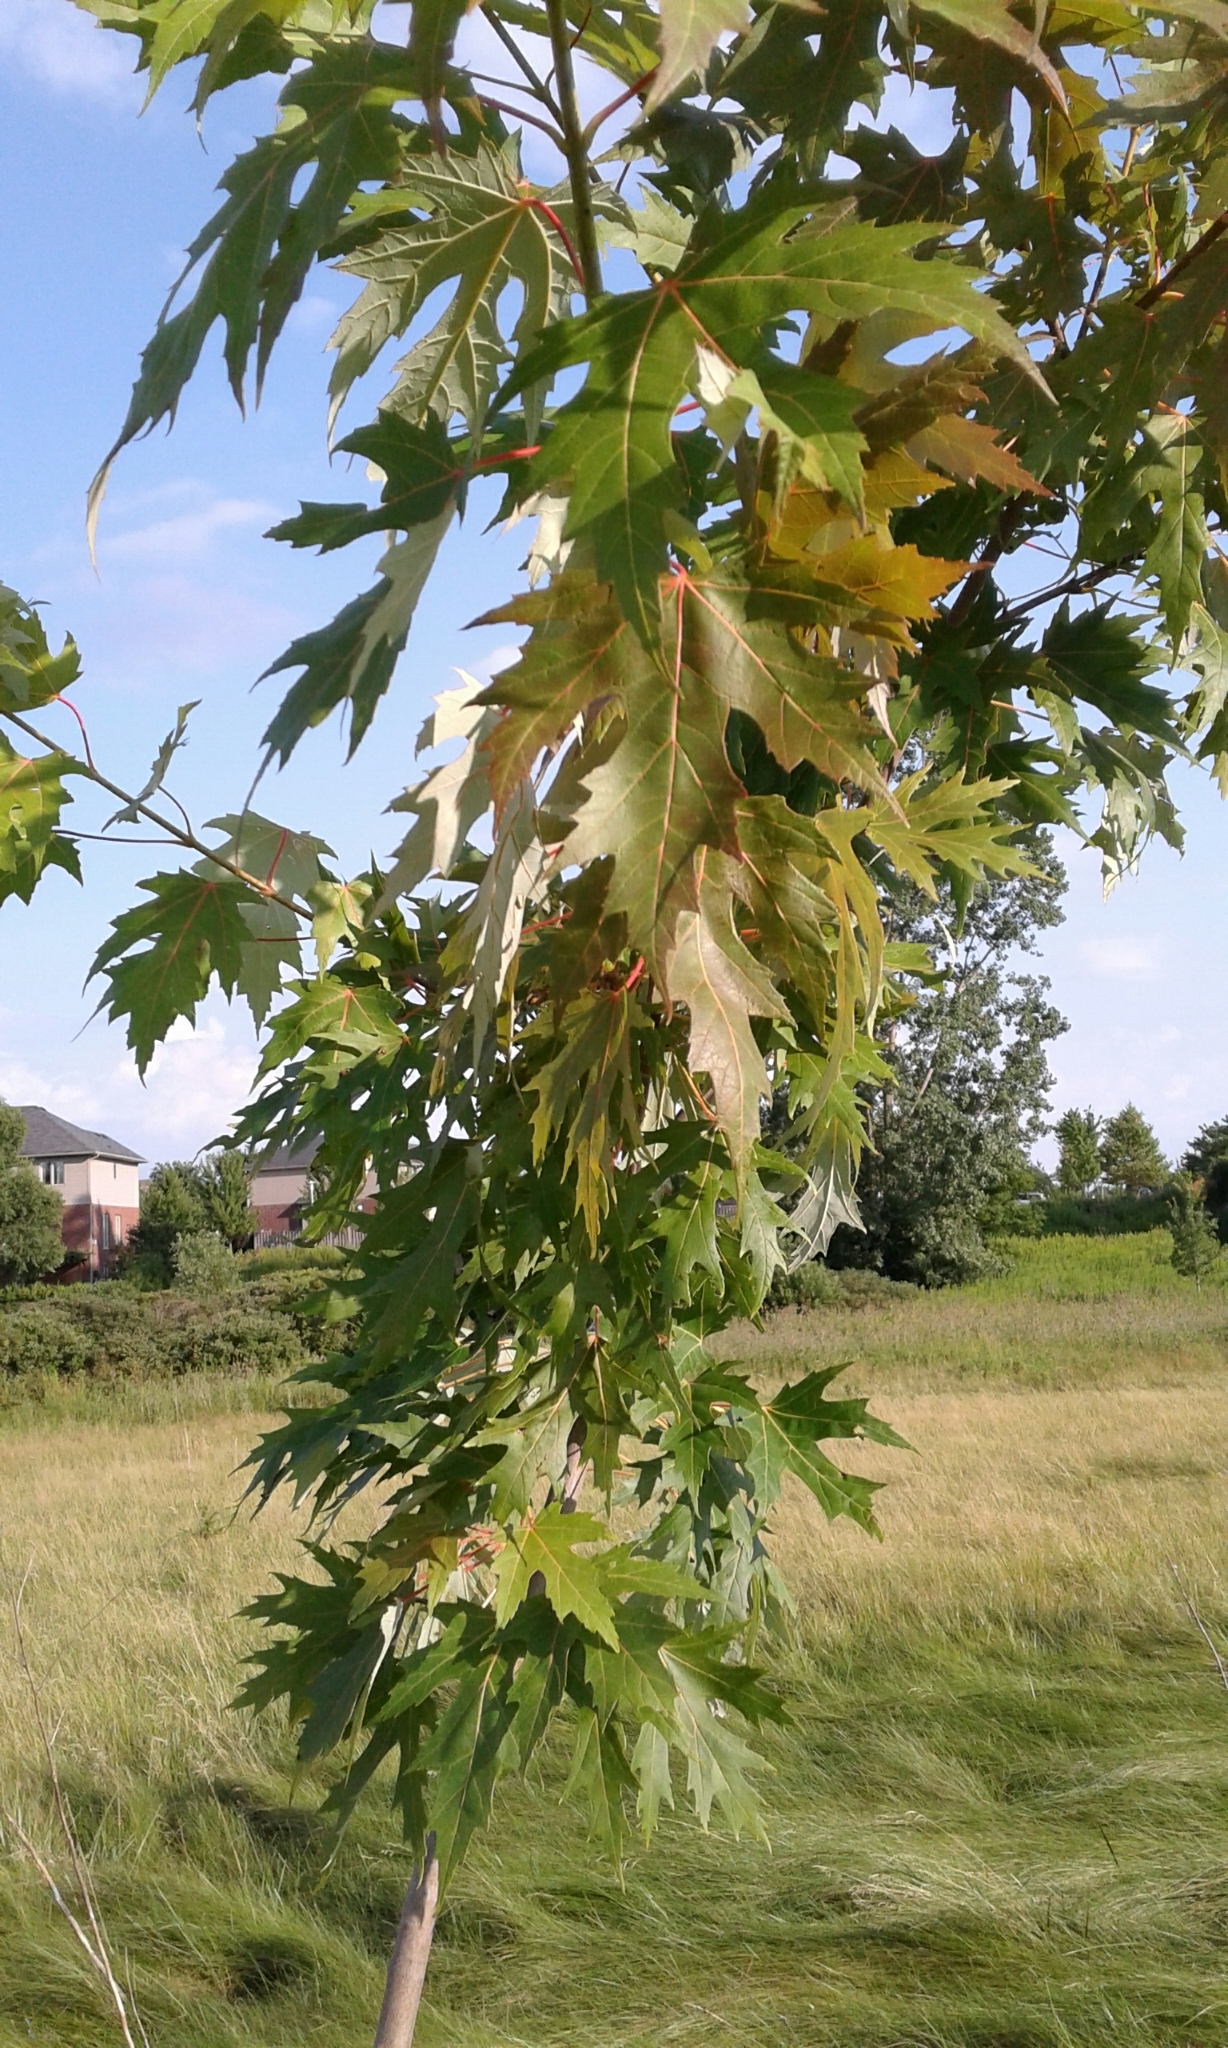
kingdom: Plantae
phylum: Tracheophyta
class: Magnoliopsida
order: Sapindales
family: Sapindaceae
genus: Acer
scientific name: Acer saccharinum
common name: Silver maple
